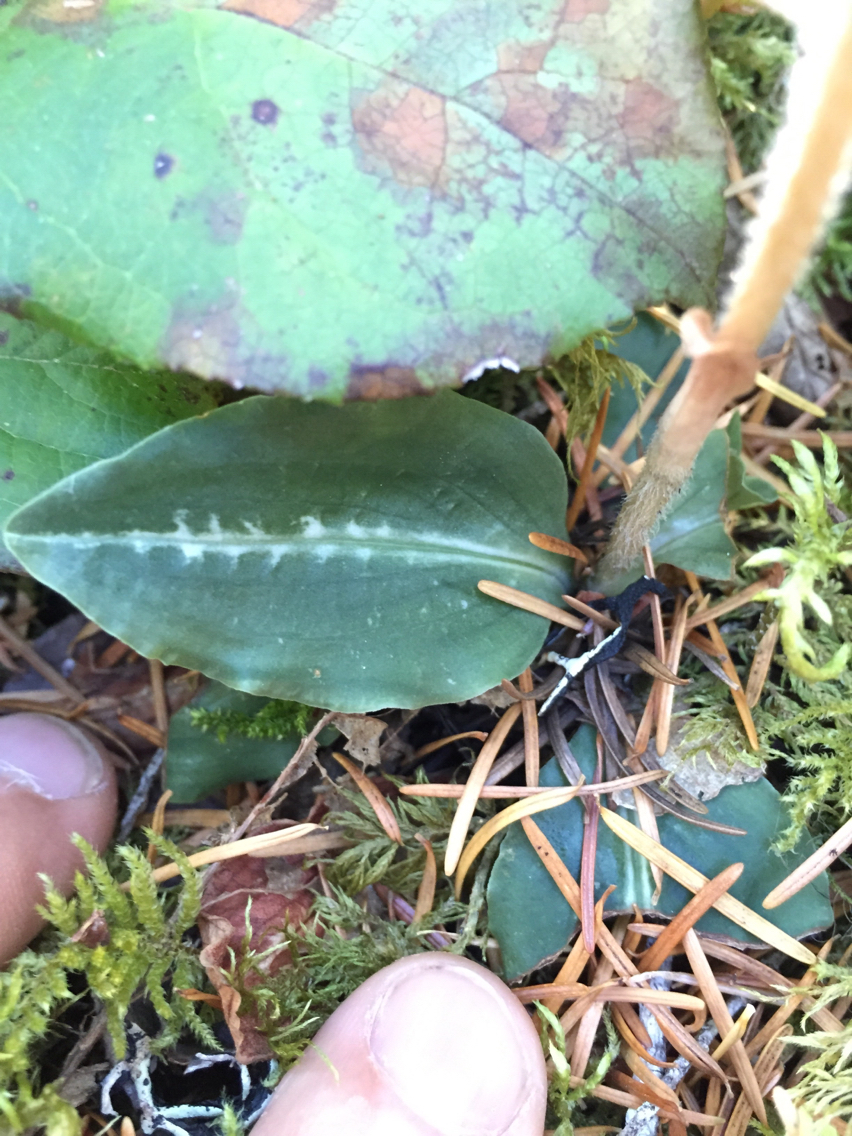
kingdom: Plantae
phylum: Tracheophyta
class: Liliopsida
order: Asparagales
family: Orchidaceae
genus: Goodyera
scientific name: Goodyera oblongifolia
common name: Giant rattlesnake-plantain
